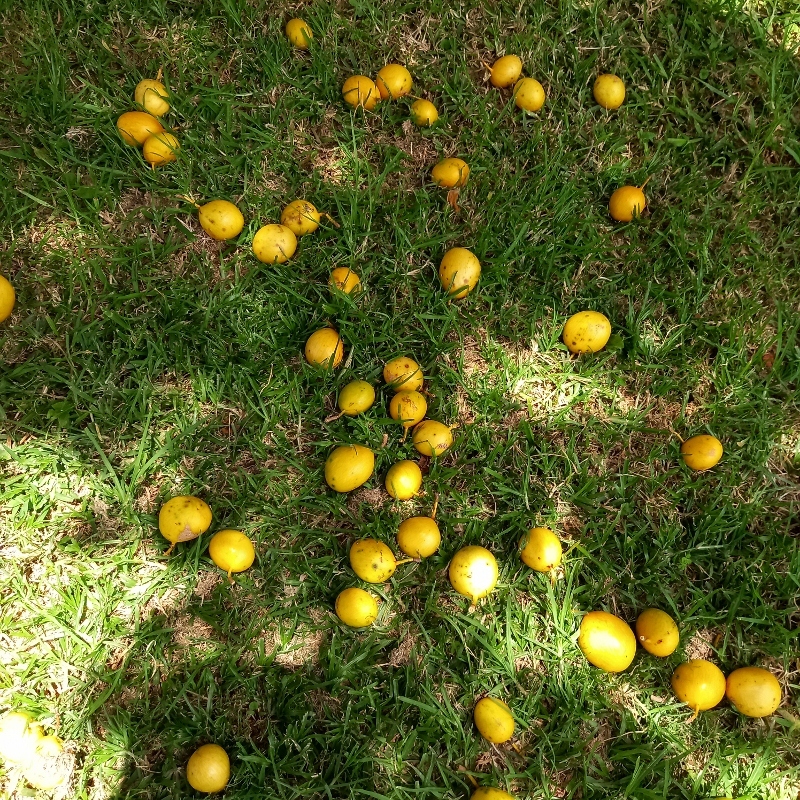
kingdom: Plantae
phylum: Tracheophyta
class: Magnoliopsida
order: Fabales
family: Fabaceae
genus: Cordyla
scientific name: Cordyla africana
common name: Wild mango
